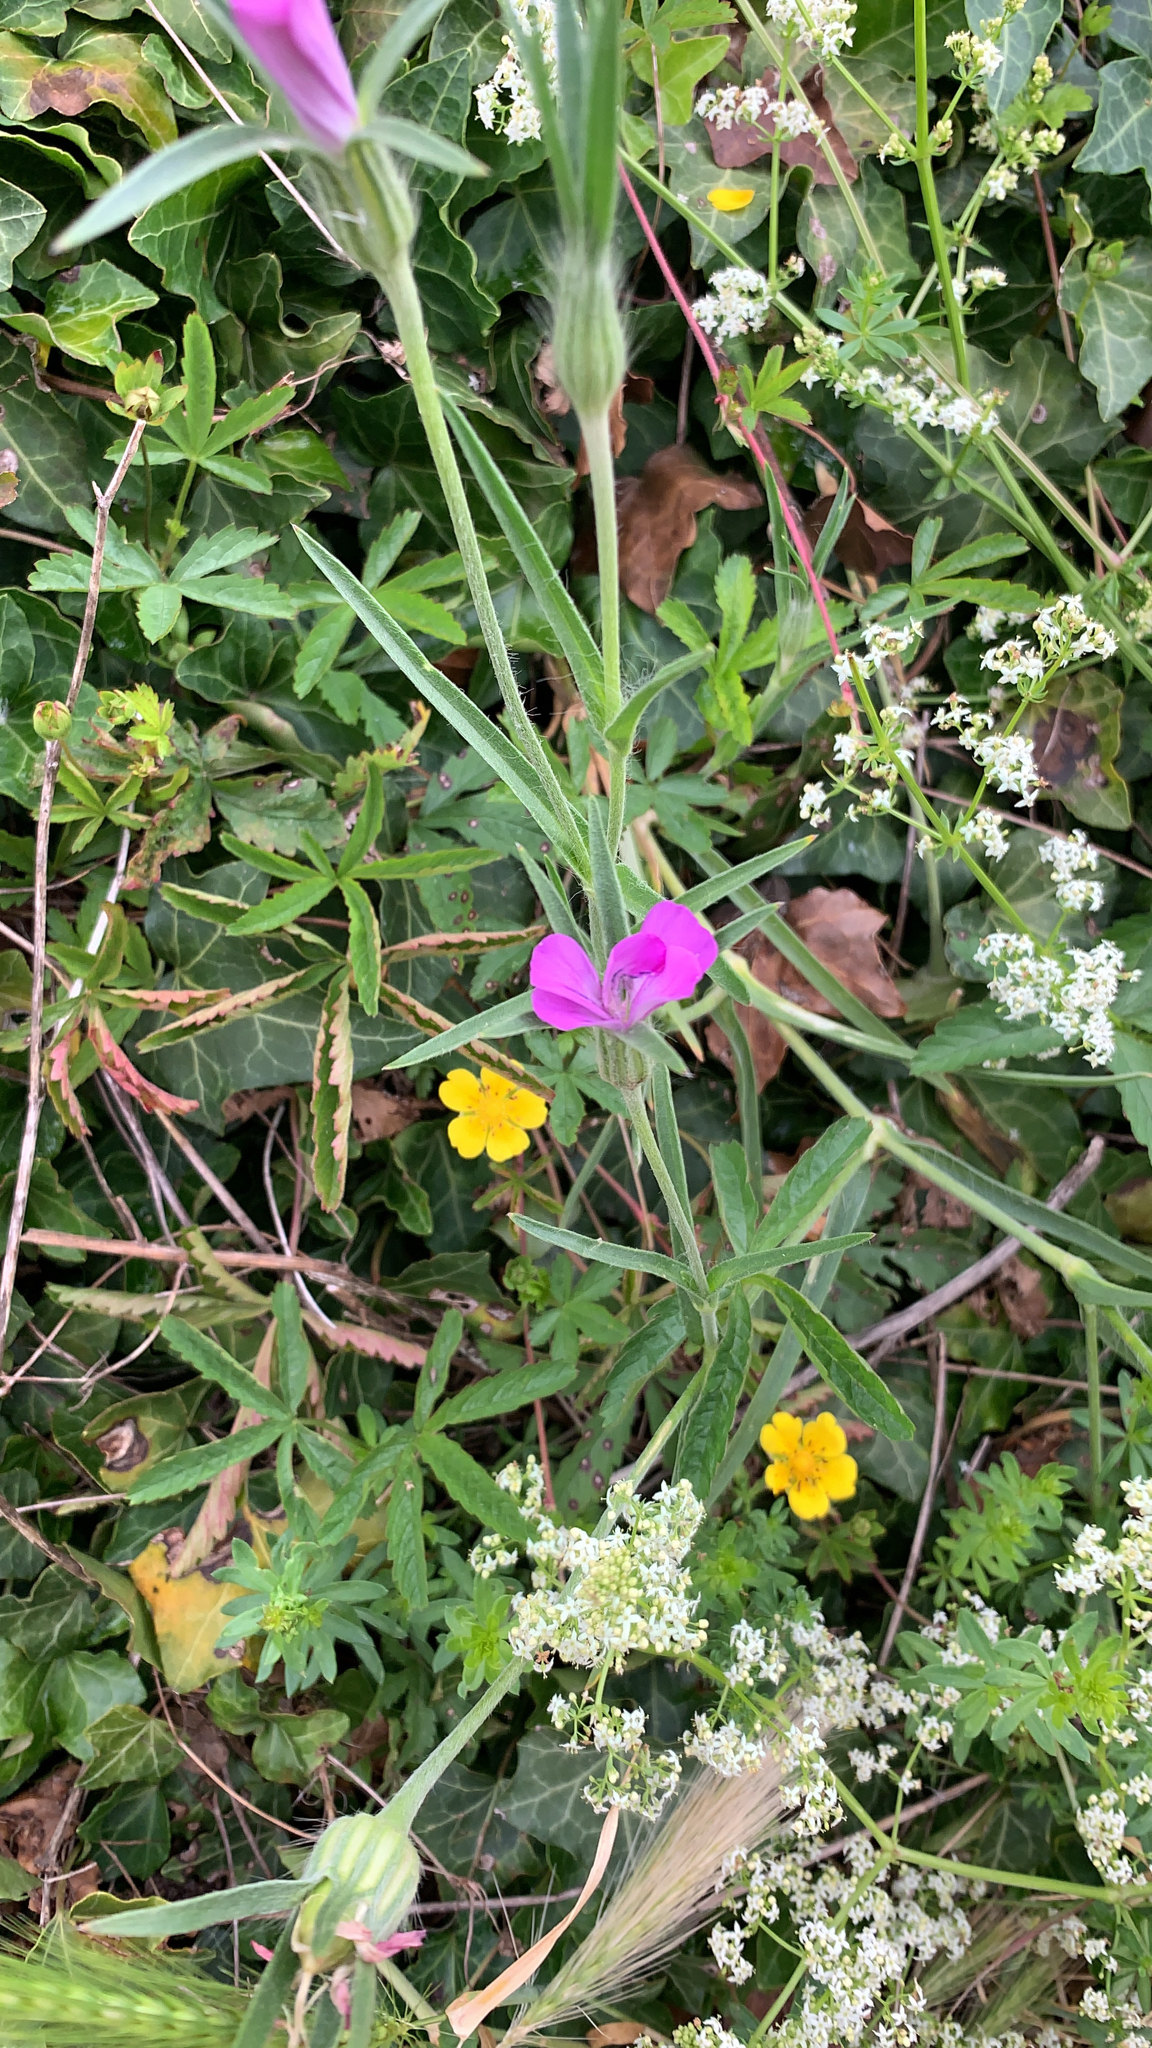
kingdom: Plantae
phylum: Tracheophyta
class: Magnoliopsida
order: Caryophyllales
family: Caryophyllaceae
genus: Agrostemma
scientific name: Agrostemma githago
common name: Common corncockle
